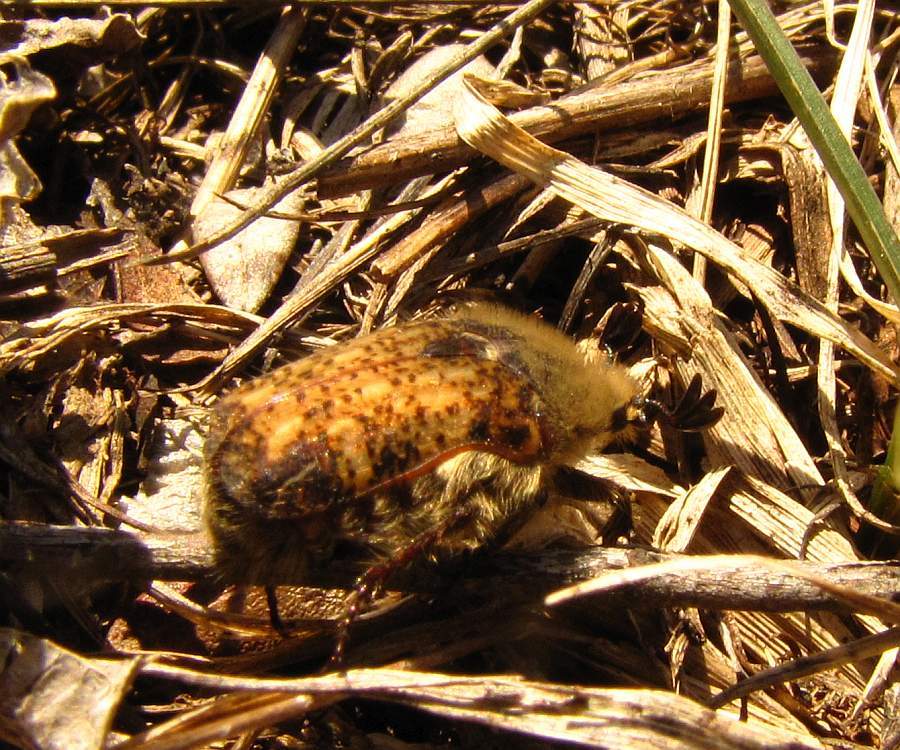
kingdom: Animalia
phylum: Arthropoda
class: Insecta
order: Coleoptera
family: Scarabaeidae
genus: Euphoria
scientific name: Euphoria inda
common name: Bumble flower beetle
